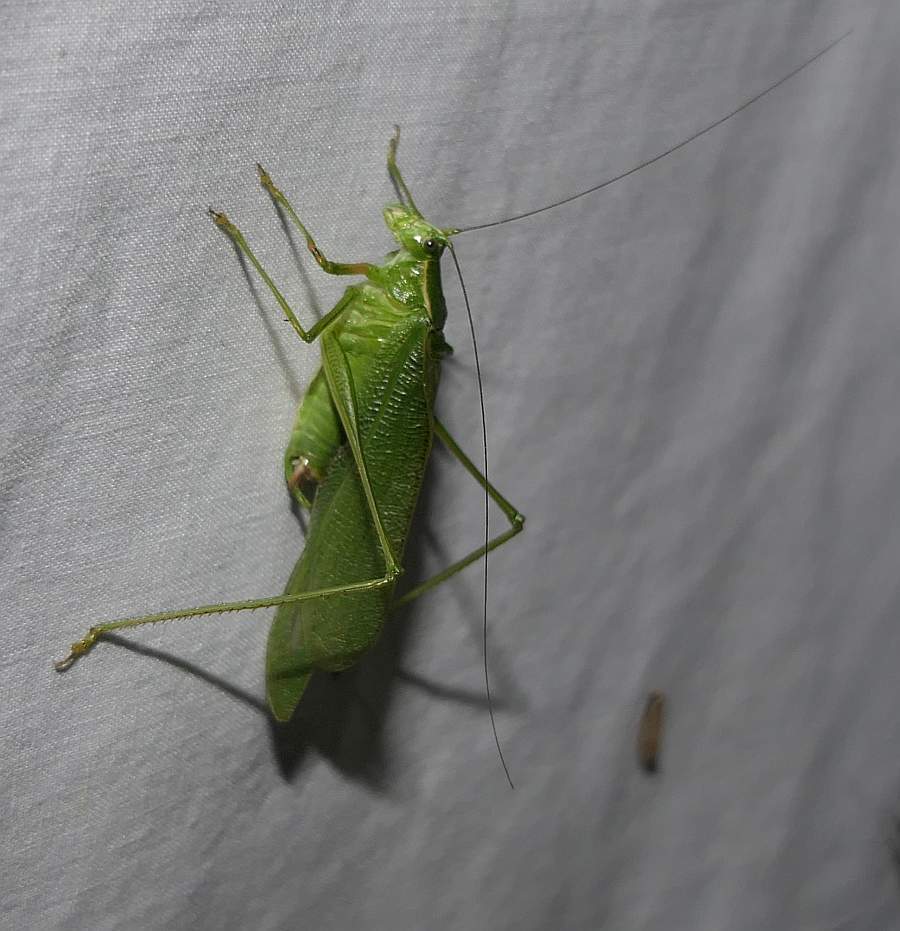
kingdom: Animalia
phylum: Arthropoda
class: Insecta
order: Orthoptera
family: Tettigoniidae
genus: Scudderia
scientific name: Scudderia septentrionalis
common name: Northern bush-katydid
